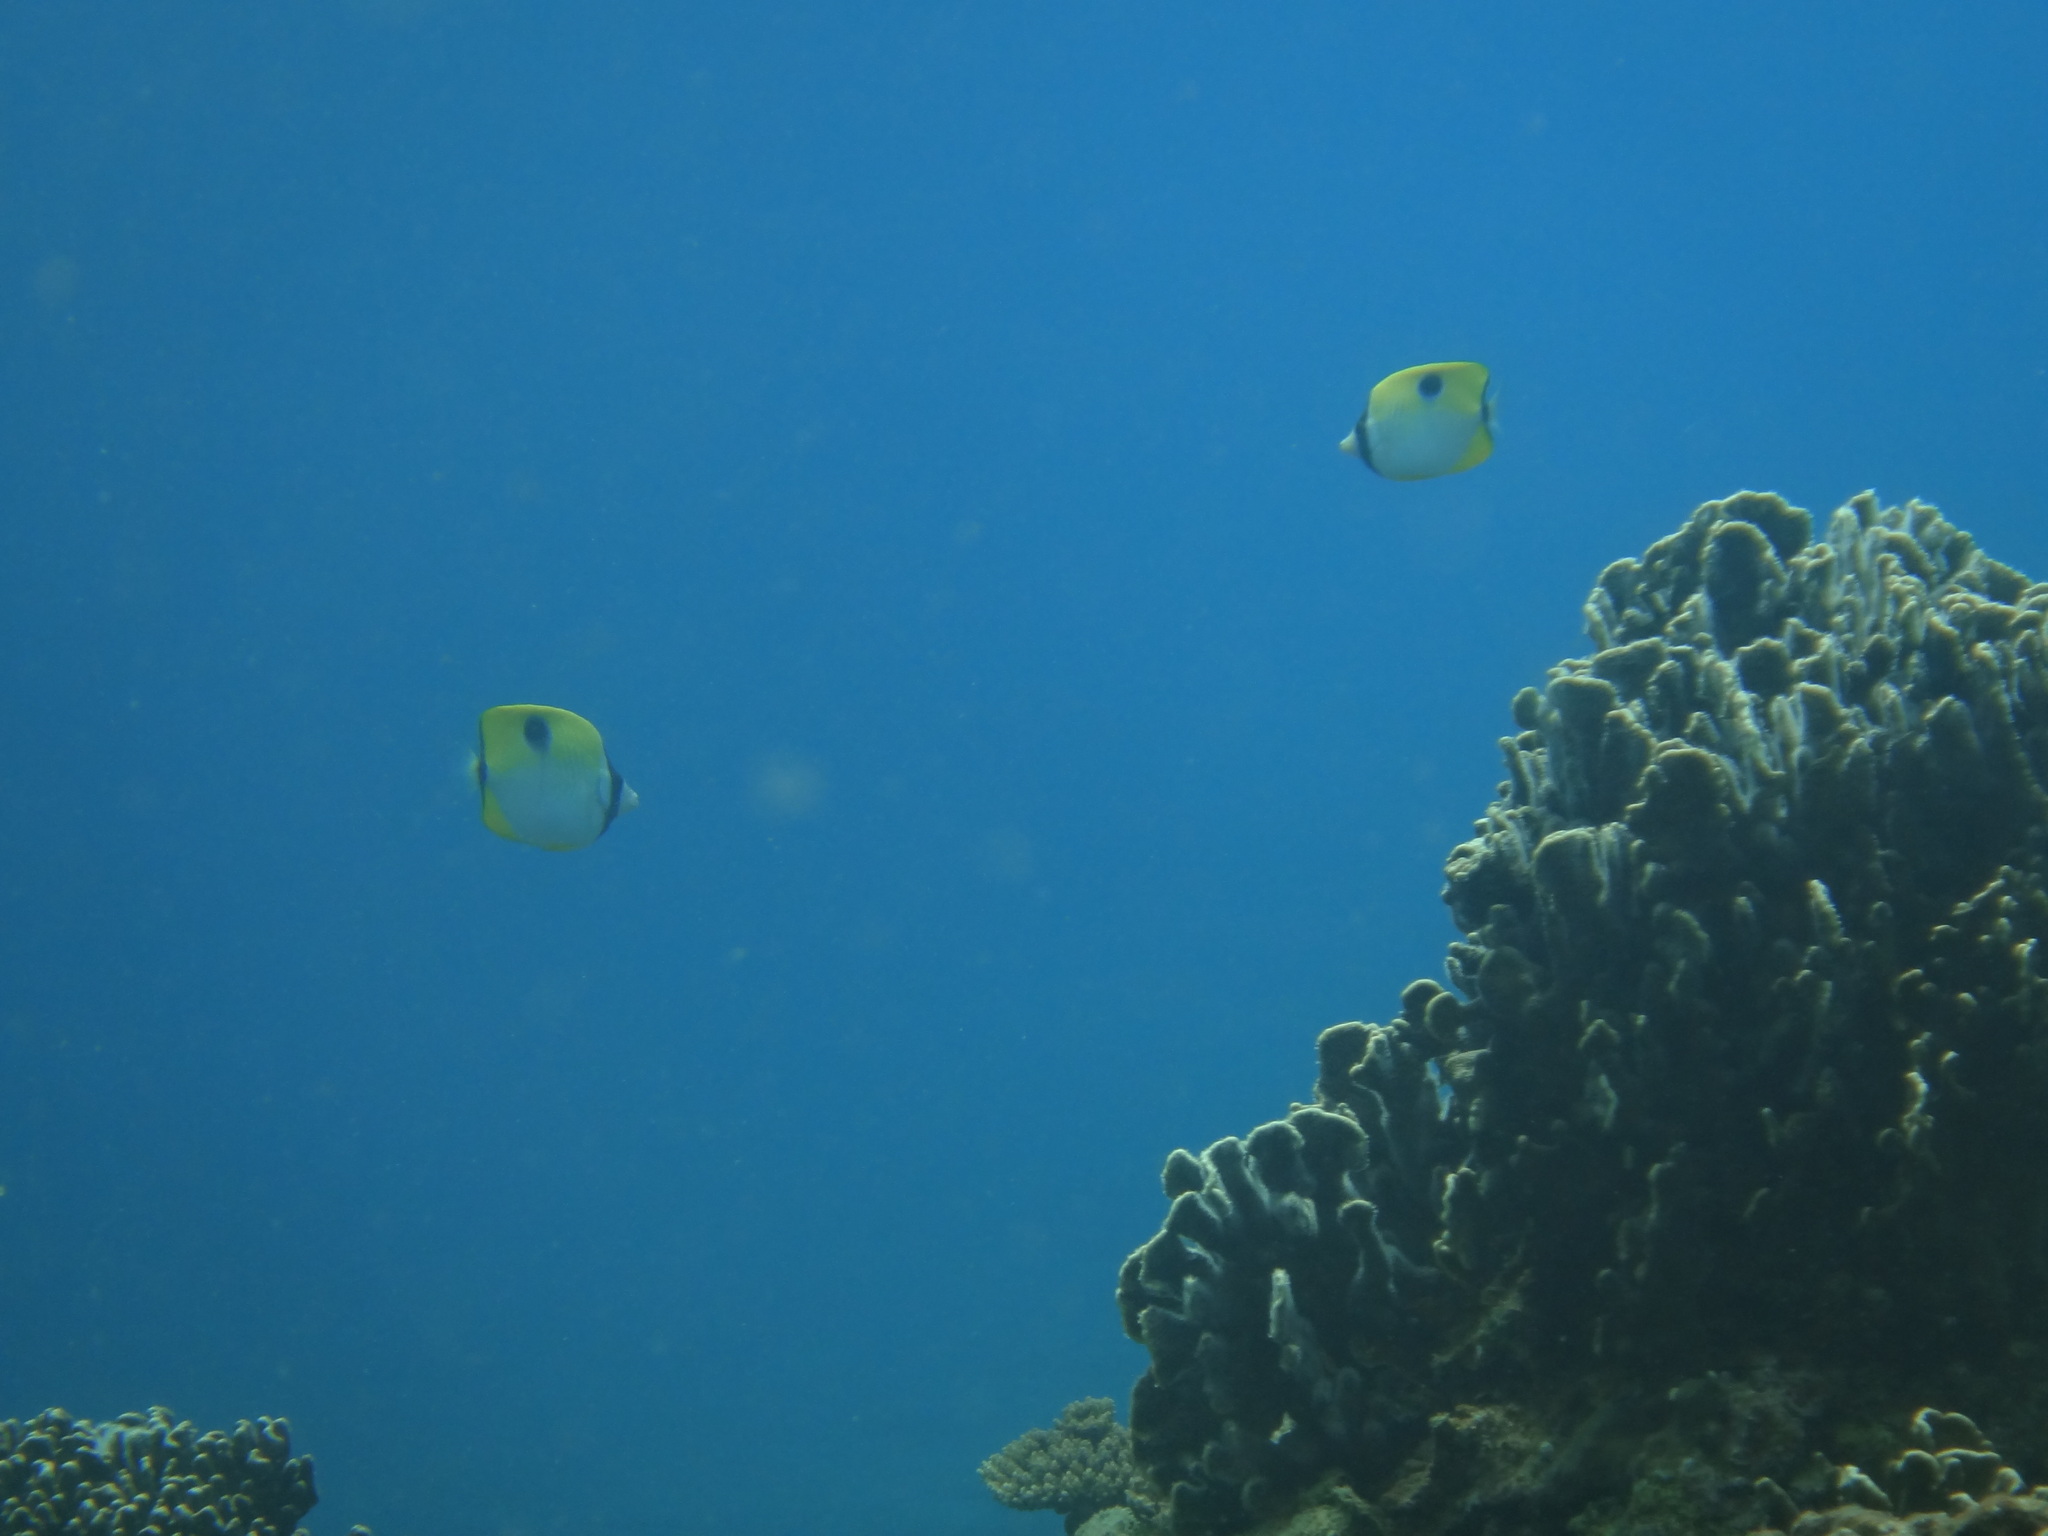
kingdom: Animalia
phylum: Chordata
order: Perciformes
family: Chaetodontidae
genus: Chaetodon
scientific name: Chaetodon unimaculatus
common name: Teardrop butterflyfish
